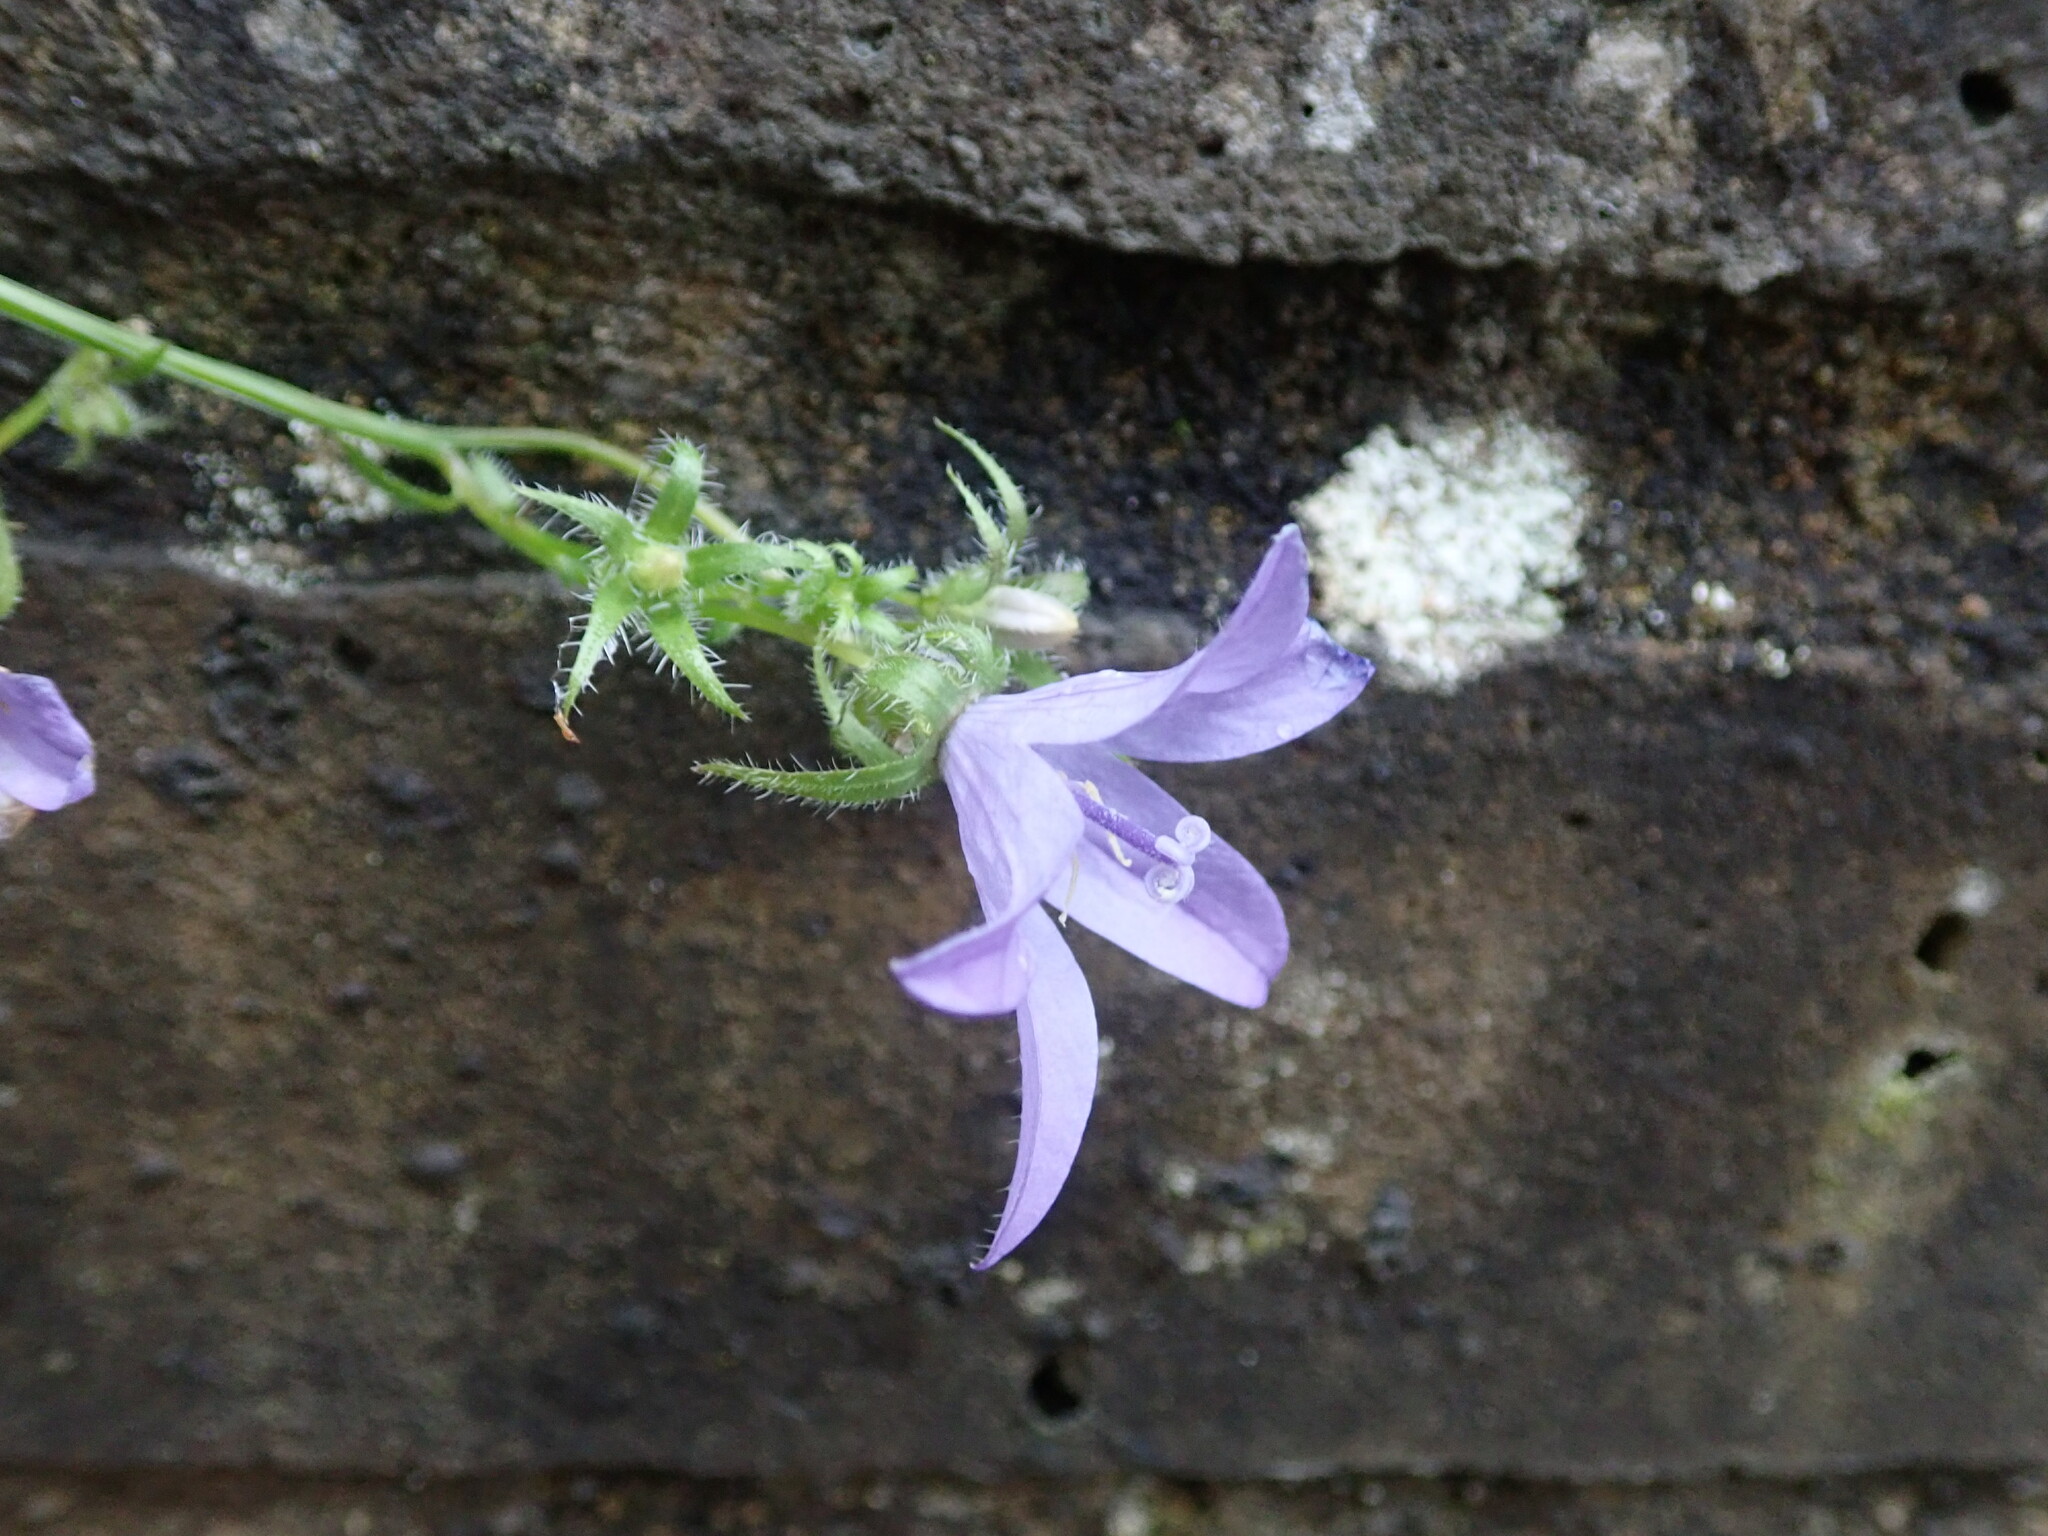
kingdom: Plantae
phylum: Tracheophyta
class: Magnoliopsida
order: Asterales
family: Campanulaceae
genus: Campanula
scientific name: Campanula poscharskyana
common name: Trailing bellflower
